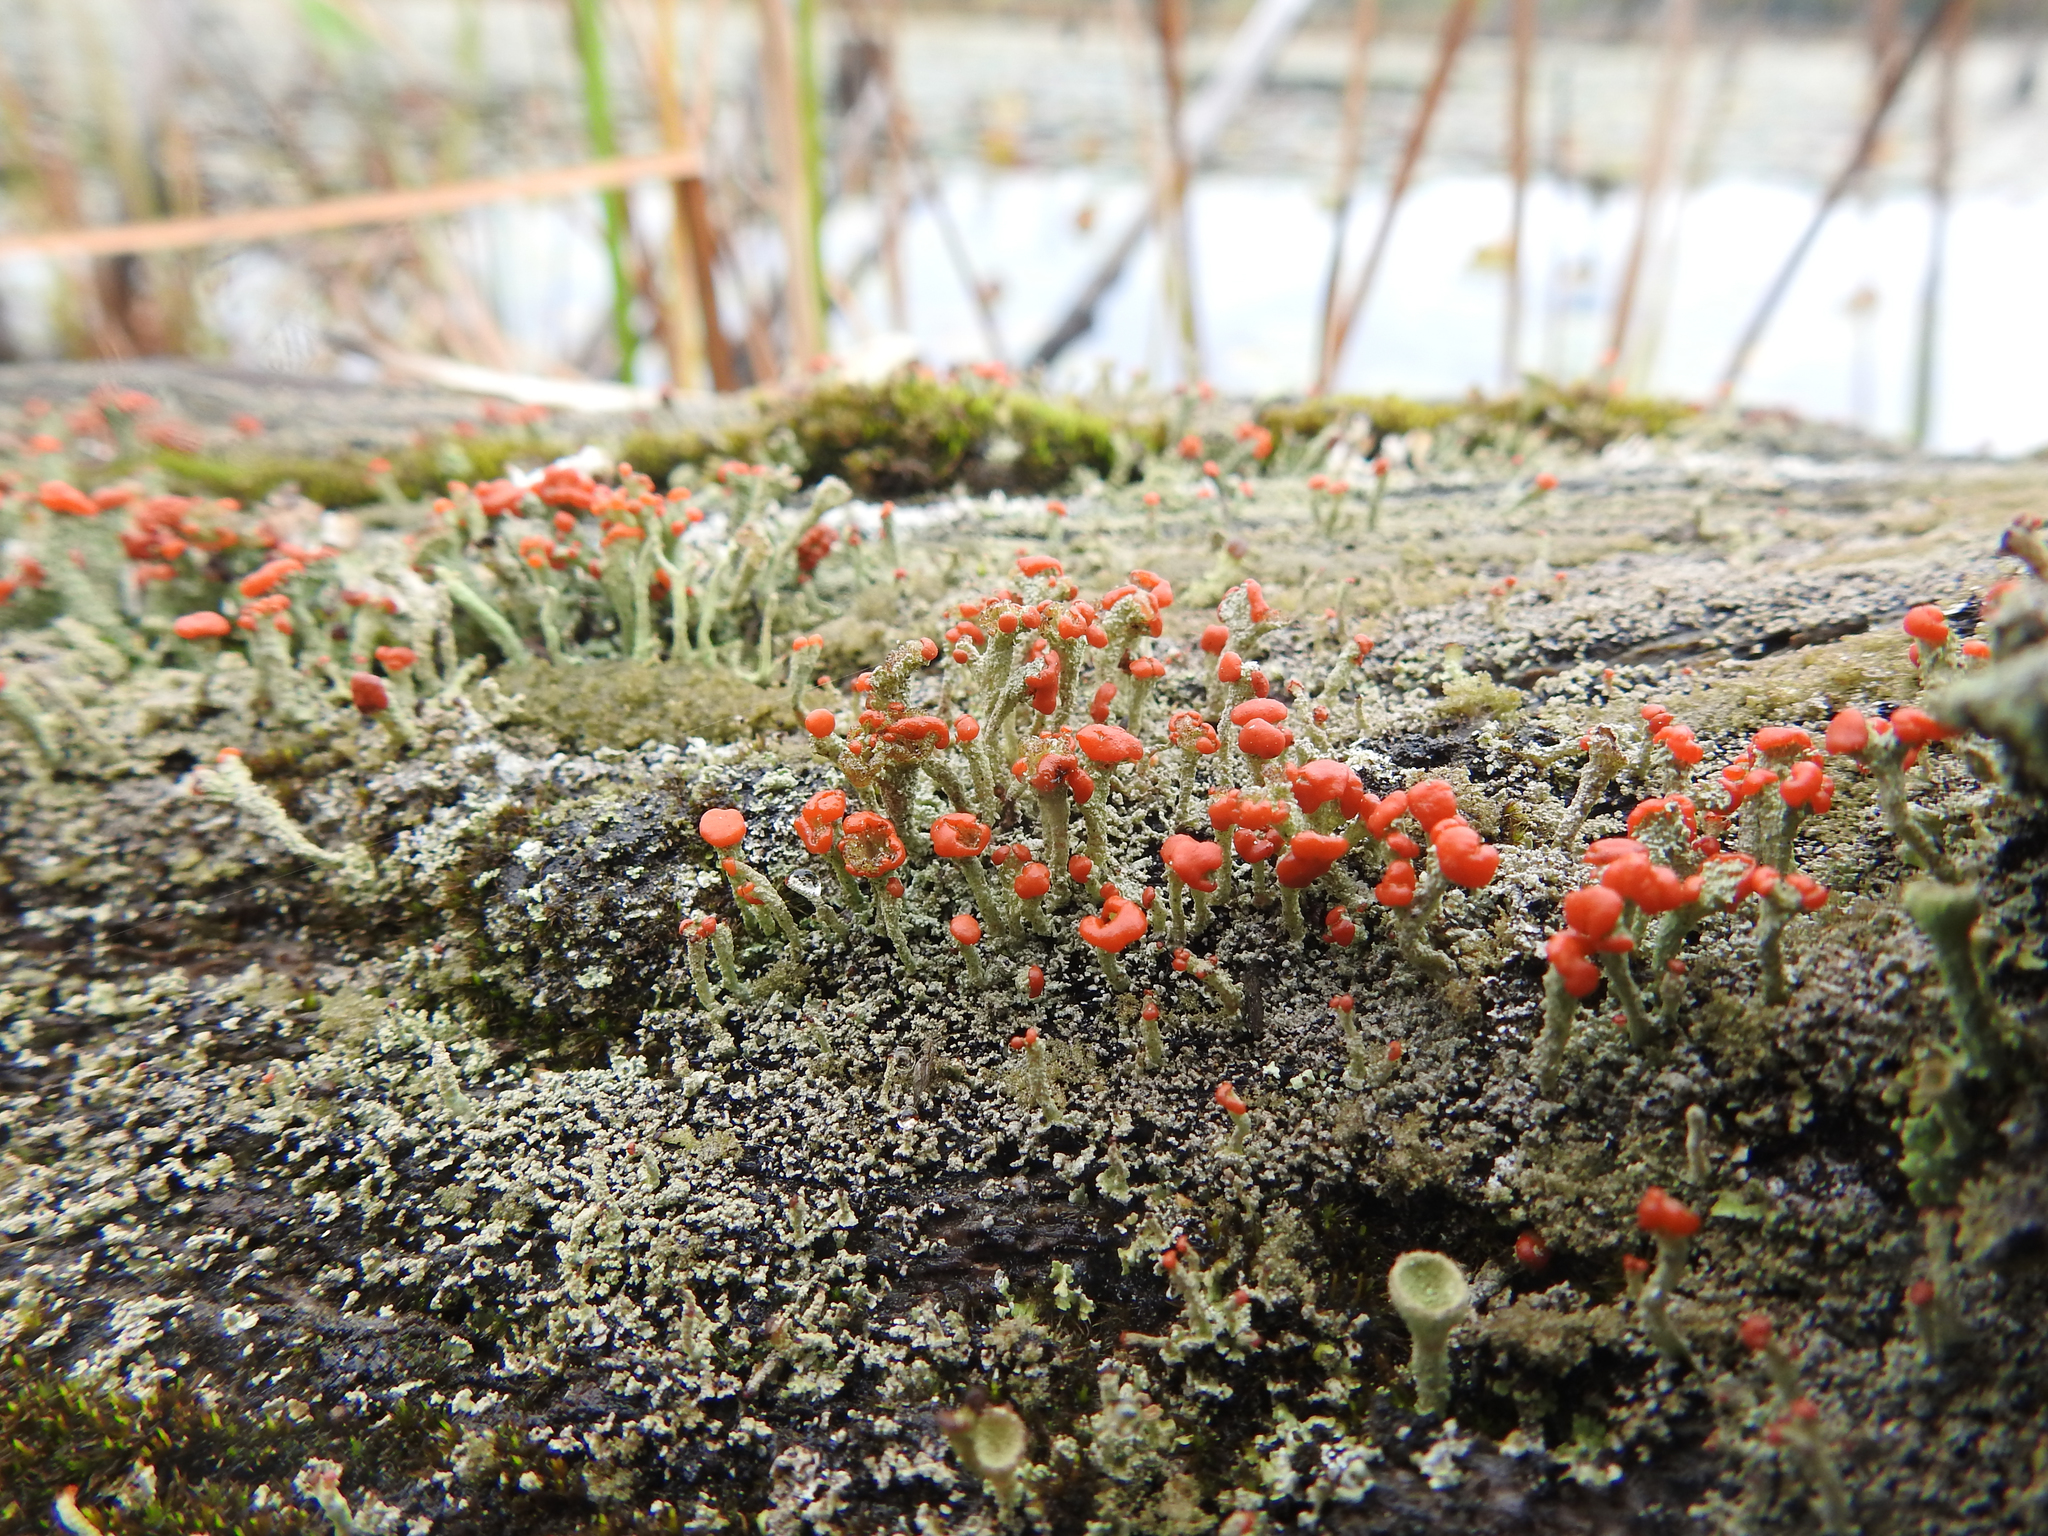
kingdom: Fungi
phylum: Ascomycota
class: Lecanoromycetes
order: Lecanorales
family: Cladoniaceae
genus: Cladonia
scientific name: Cladonia cristatella
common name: British soldier lichen
